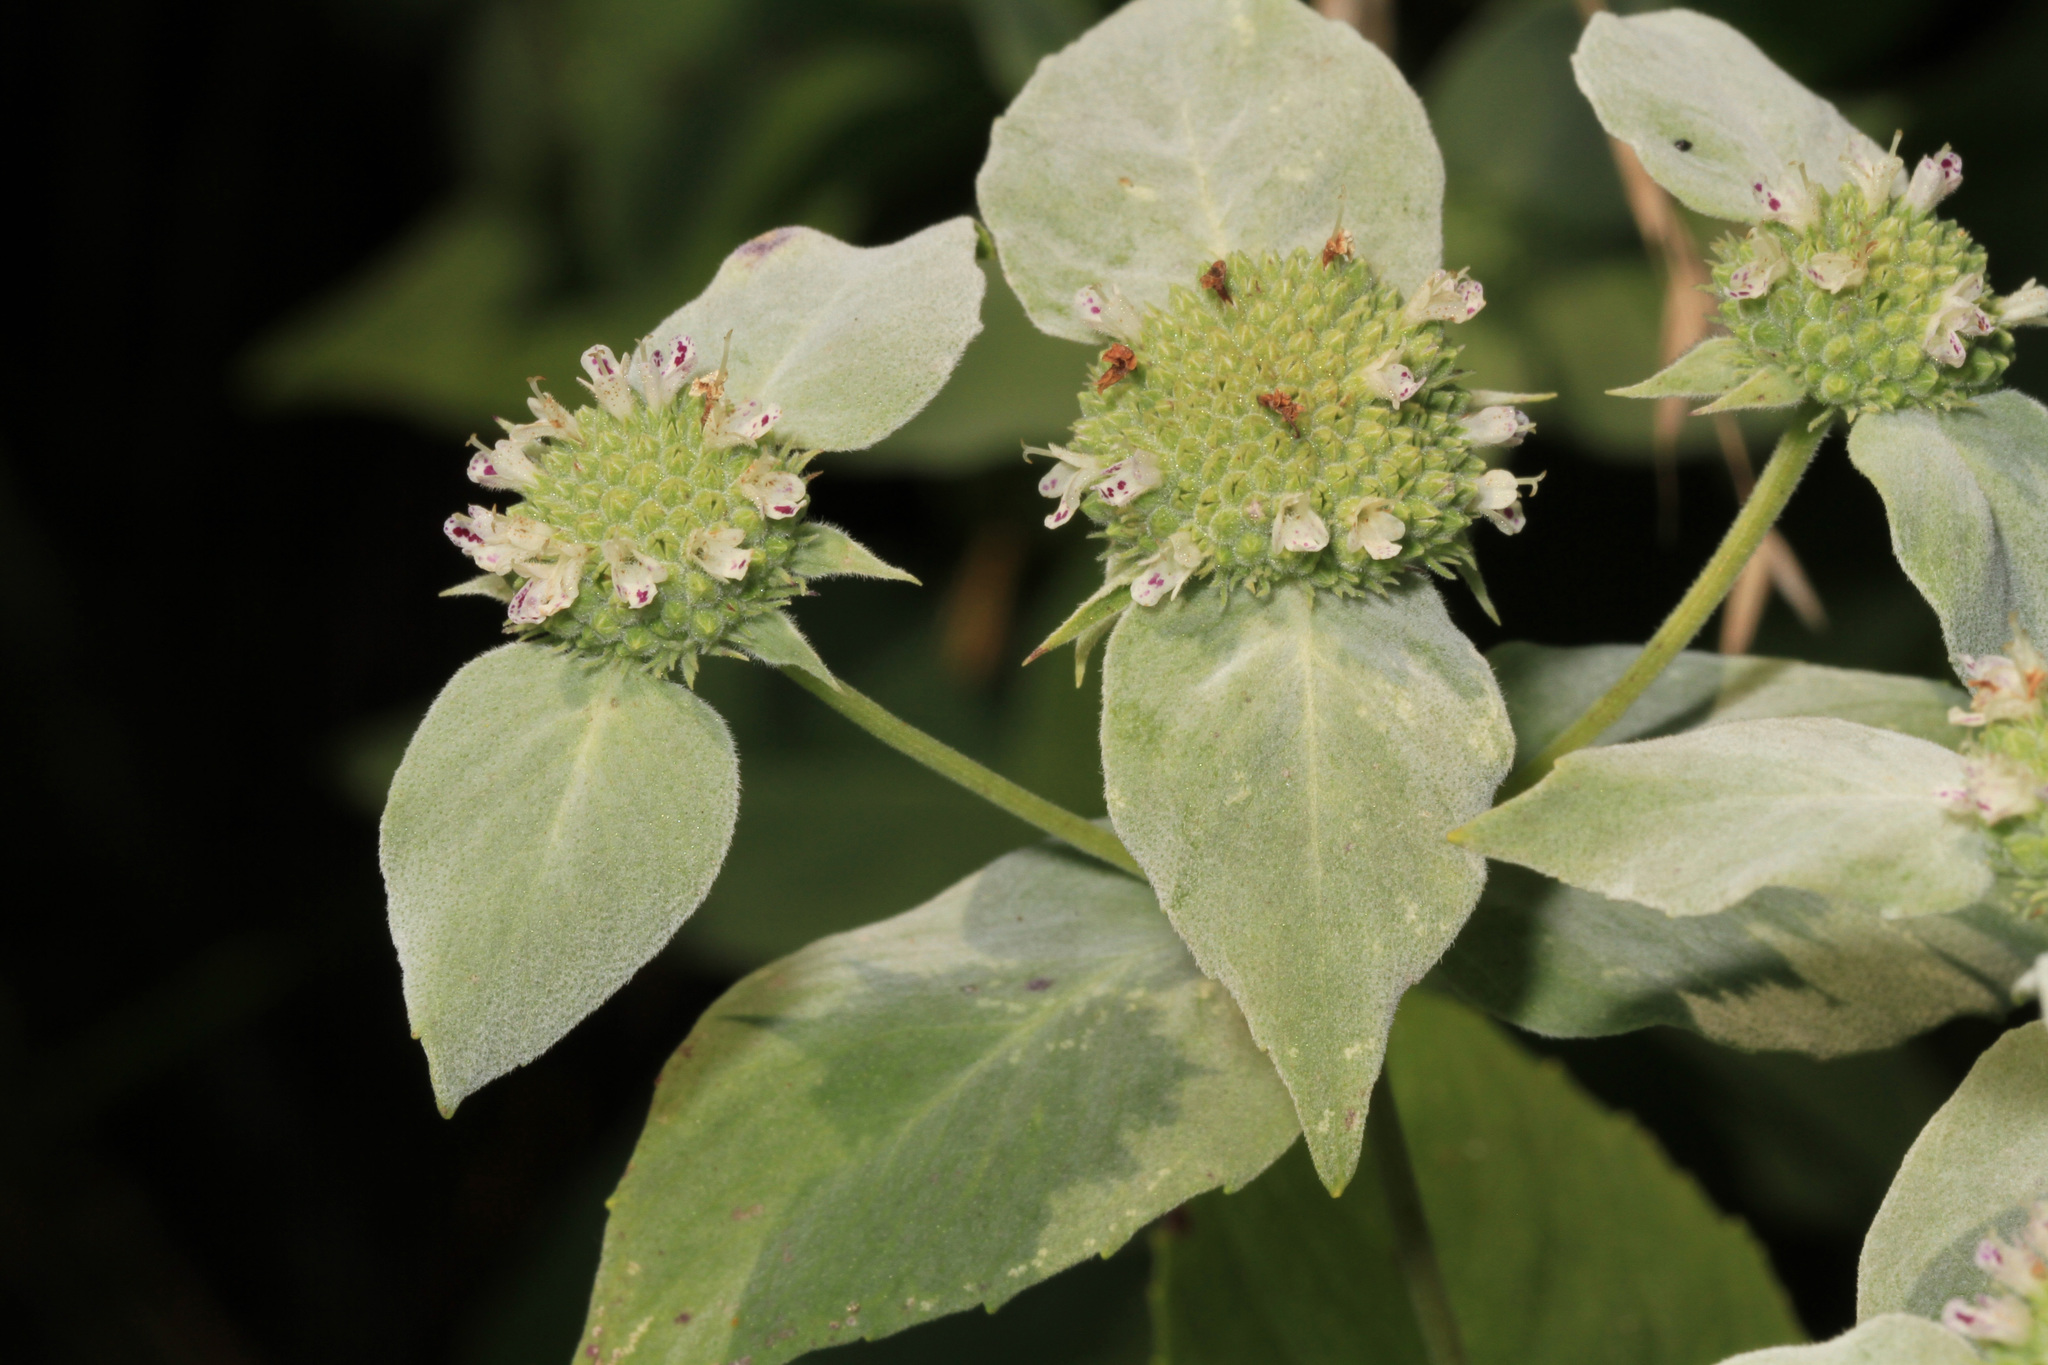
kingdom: Plantae
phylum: Tracheophyta
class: Magnoliopsida
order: Lamiales
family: Lamiaceae
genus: Pycnanthemum
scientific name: Pycnanthemum muticum
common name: Blunt mountain-mint
